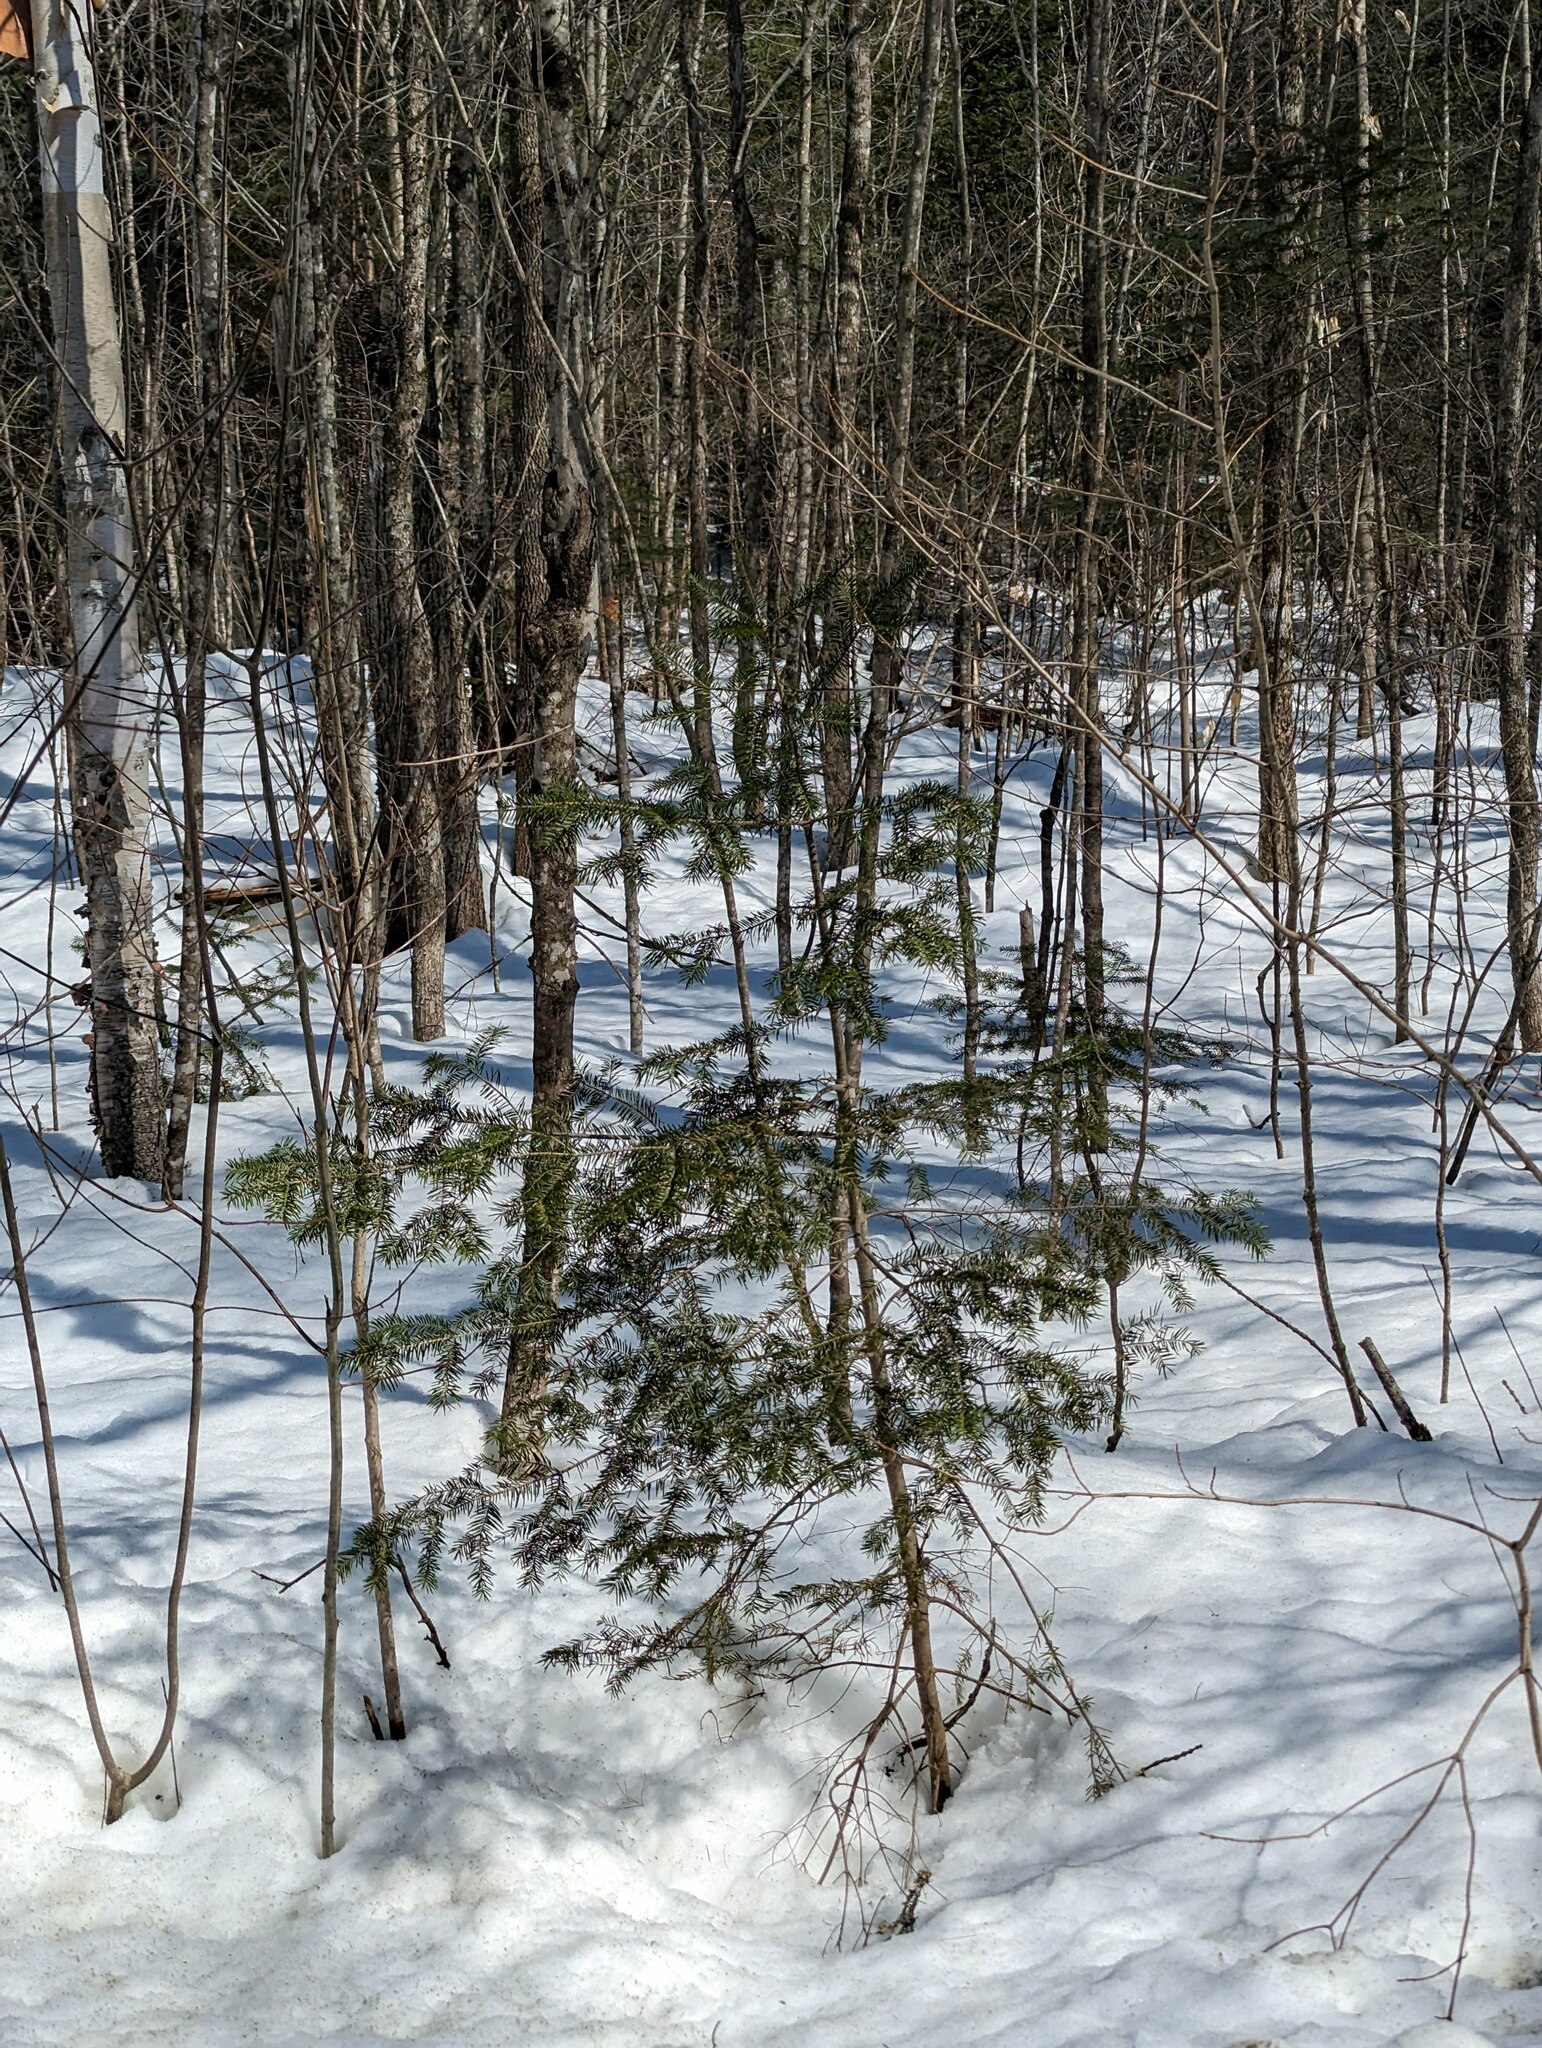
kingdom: Plantae
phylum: Tracheophyta
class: Pinopsida
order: Pinales
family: Pinaceae
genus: Abies
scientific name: Abies balsamea
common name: Balsam fir
